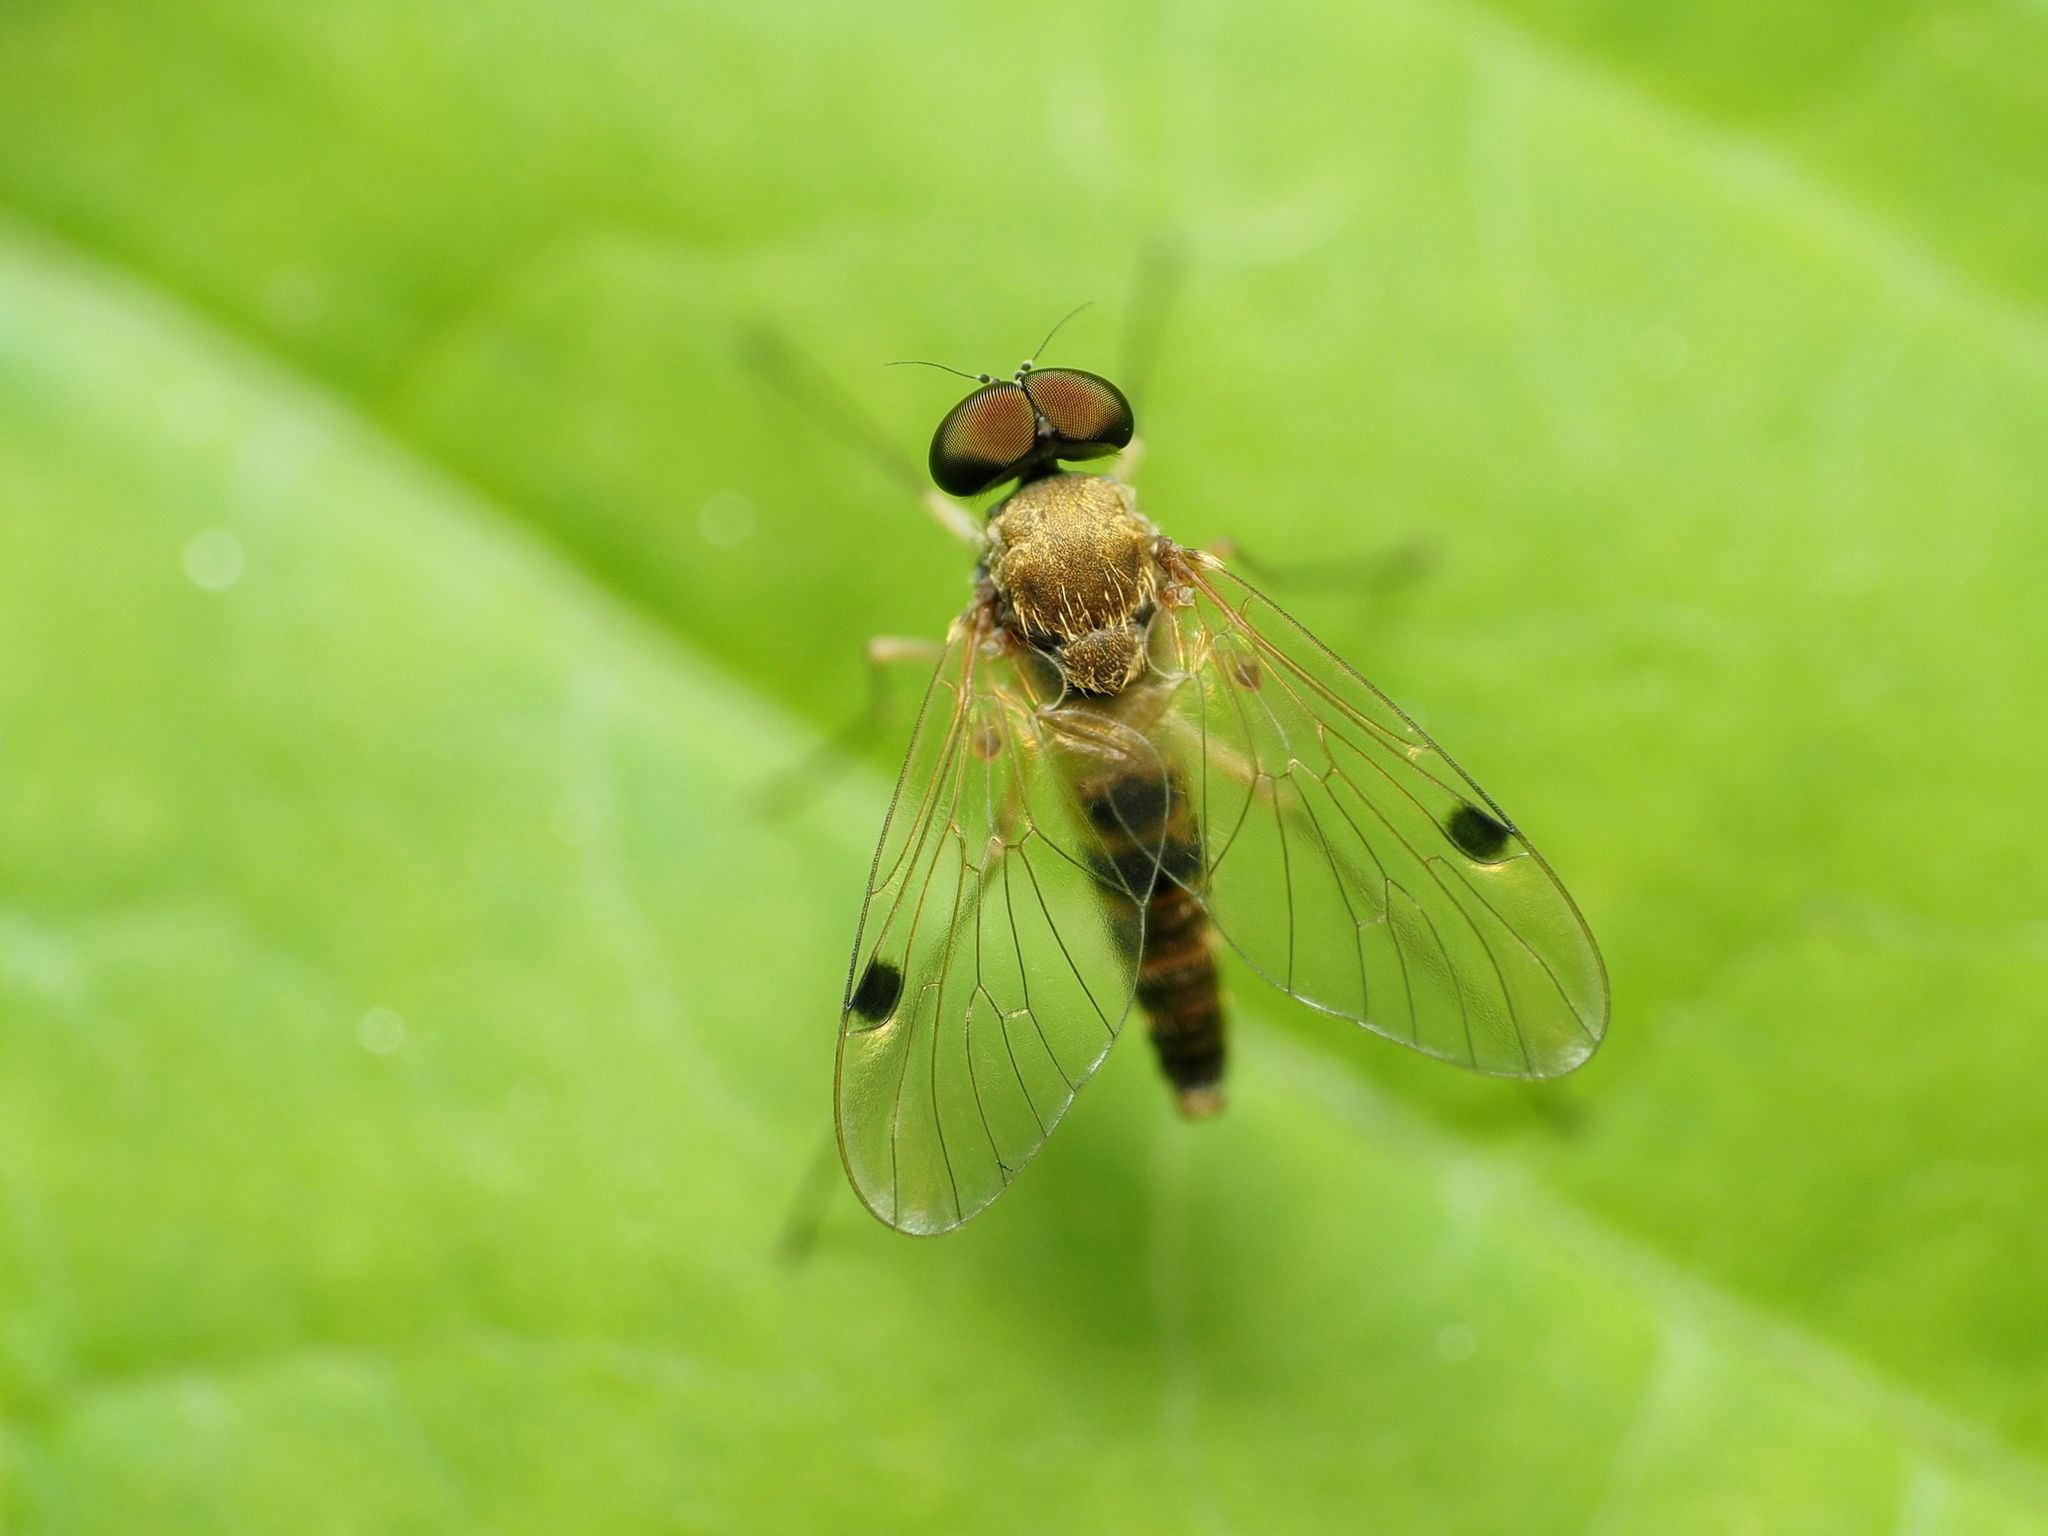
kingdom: Animalia
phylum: Arthropoda
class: Insecta
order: Diptera
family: Rhagionidae
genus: Chrysopilus
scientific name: Chrysopilus modestus
